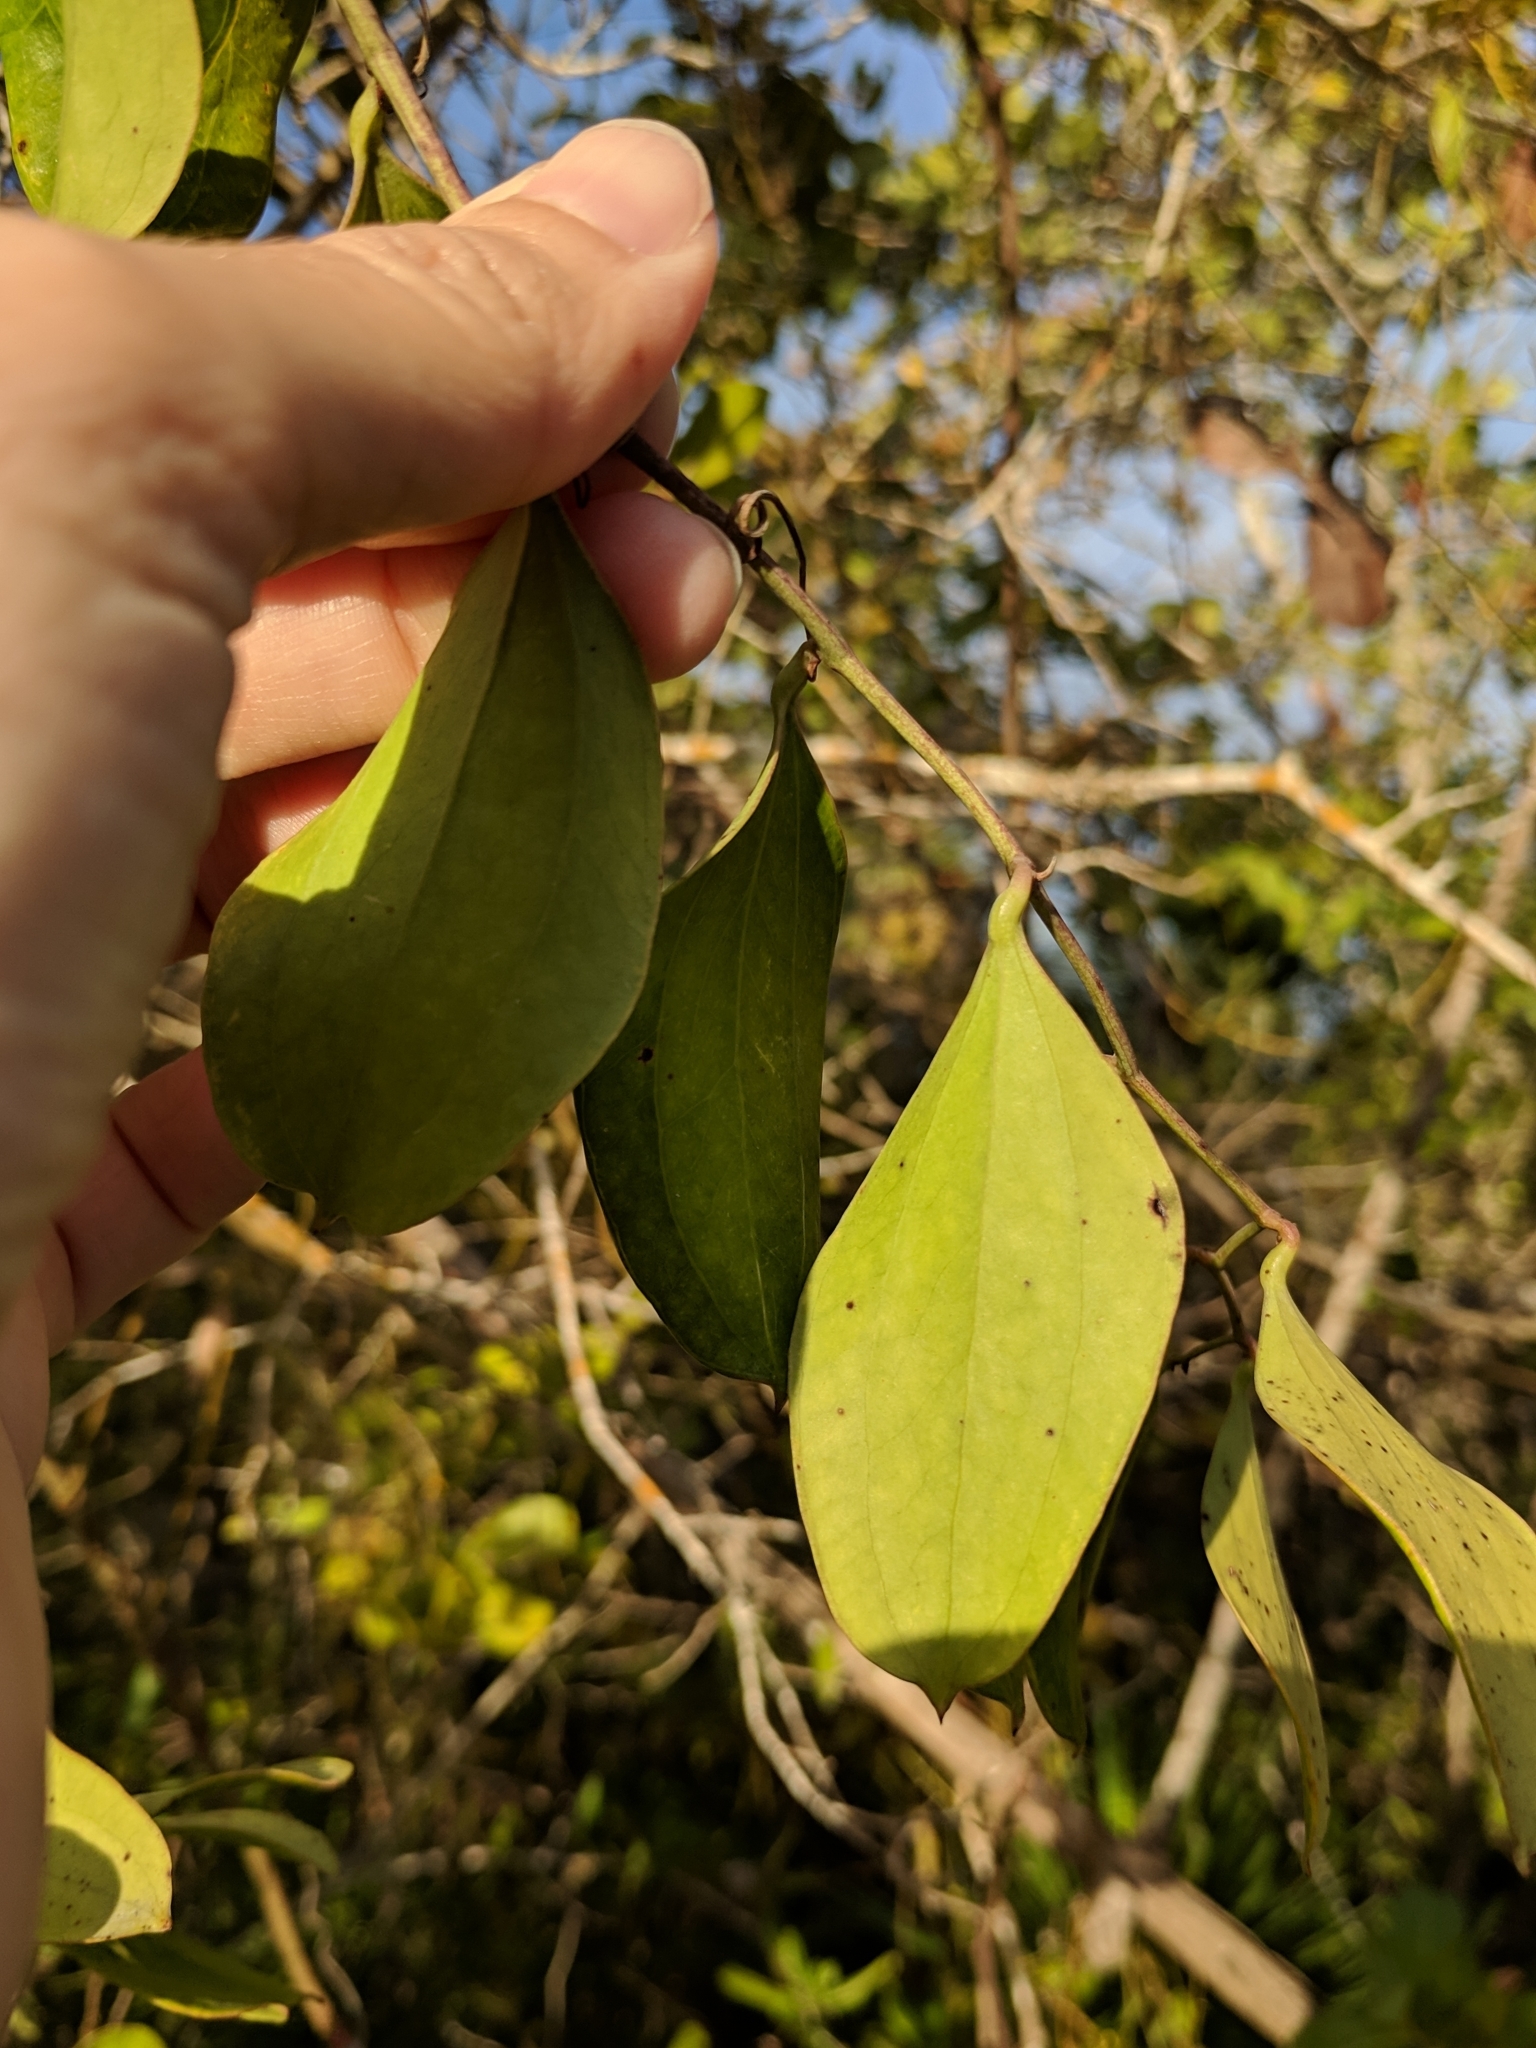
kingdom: Plantae
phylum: Tracheophyta
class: Liliopsida
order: Liliales
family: Smilacaceae
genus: Smilax
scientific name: Smilax auriculata
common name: Wild bamboo
